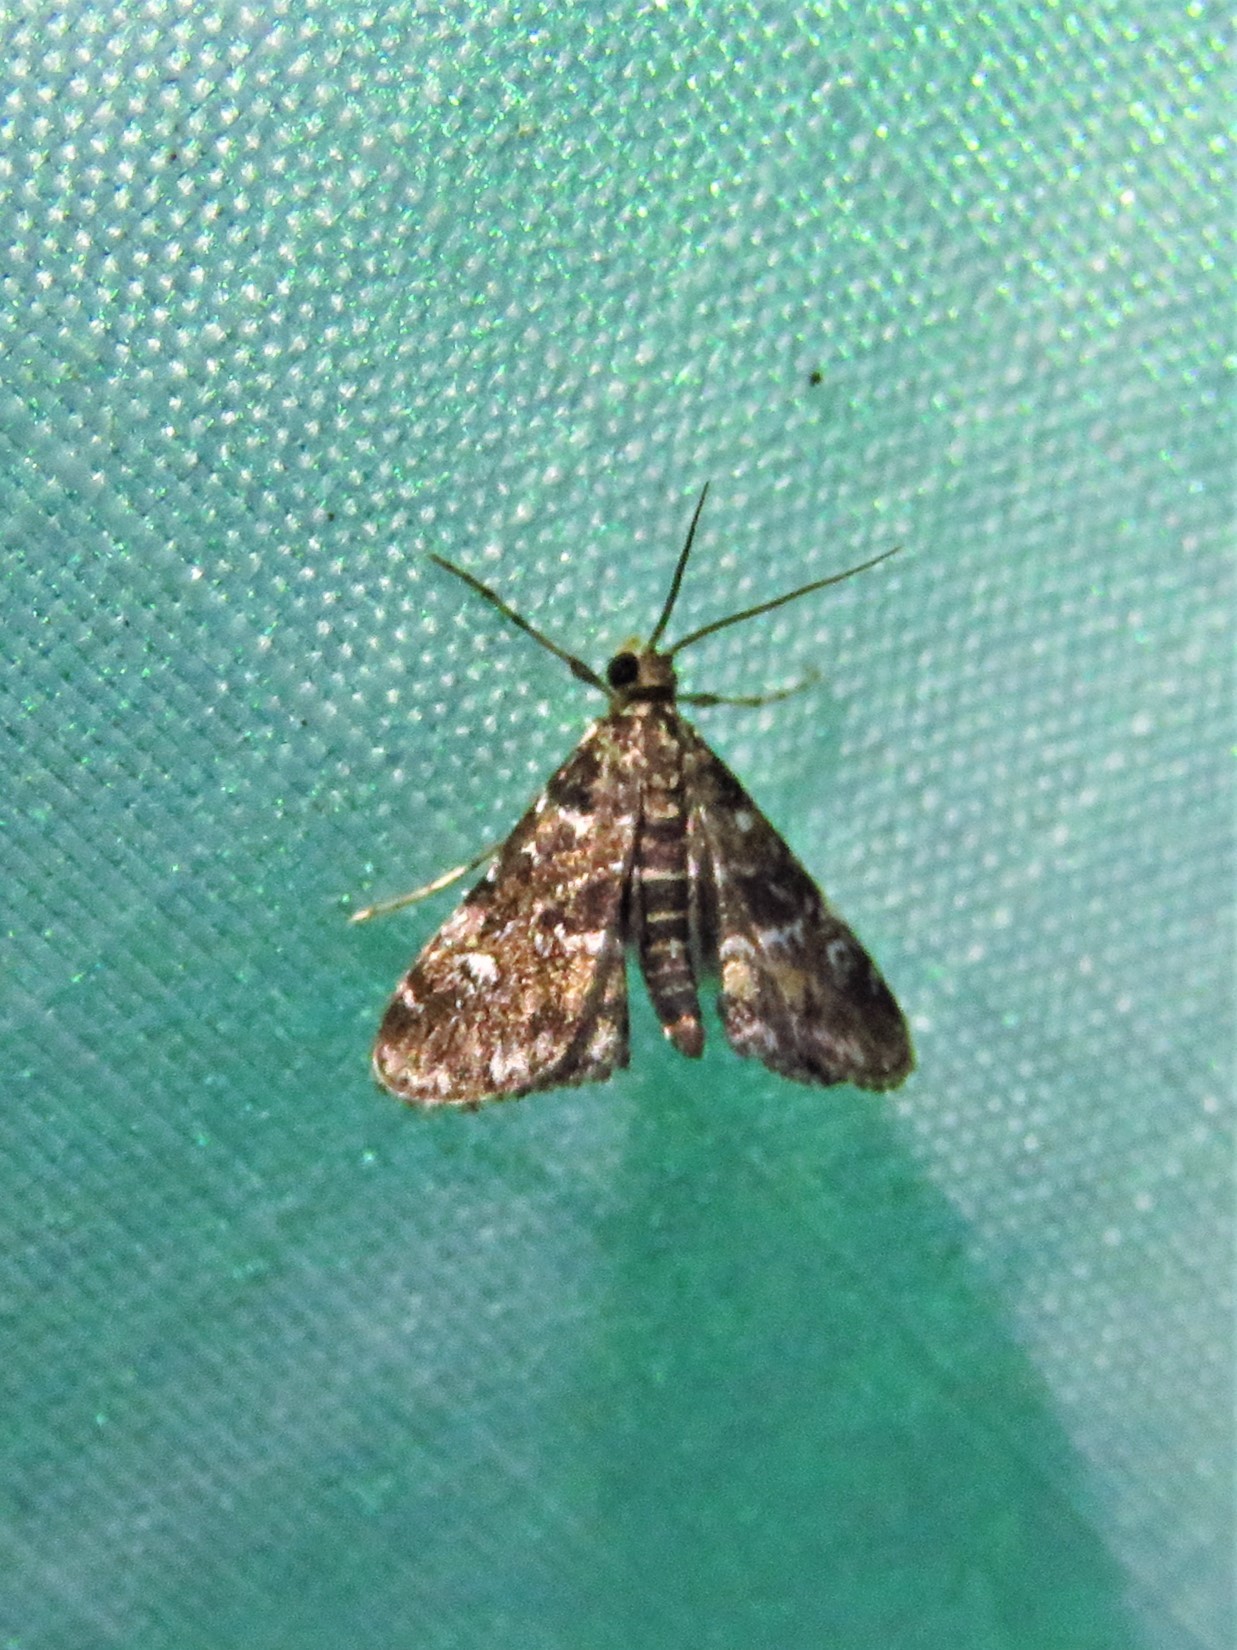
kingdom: Animalia
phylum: Arthropoda
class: Insecta
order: Lepidoptera
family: Crambidae
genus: Elophila
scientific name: Elophila obliteralis
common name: Waterlily leafcutter moth
